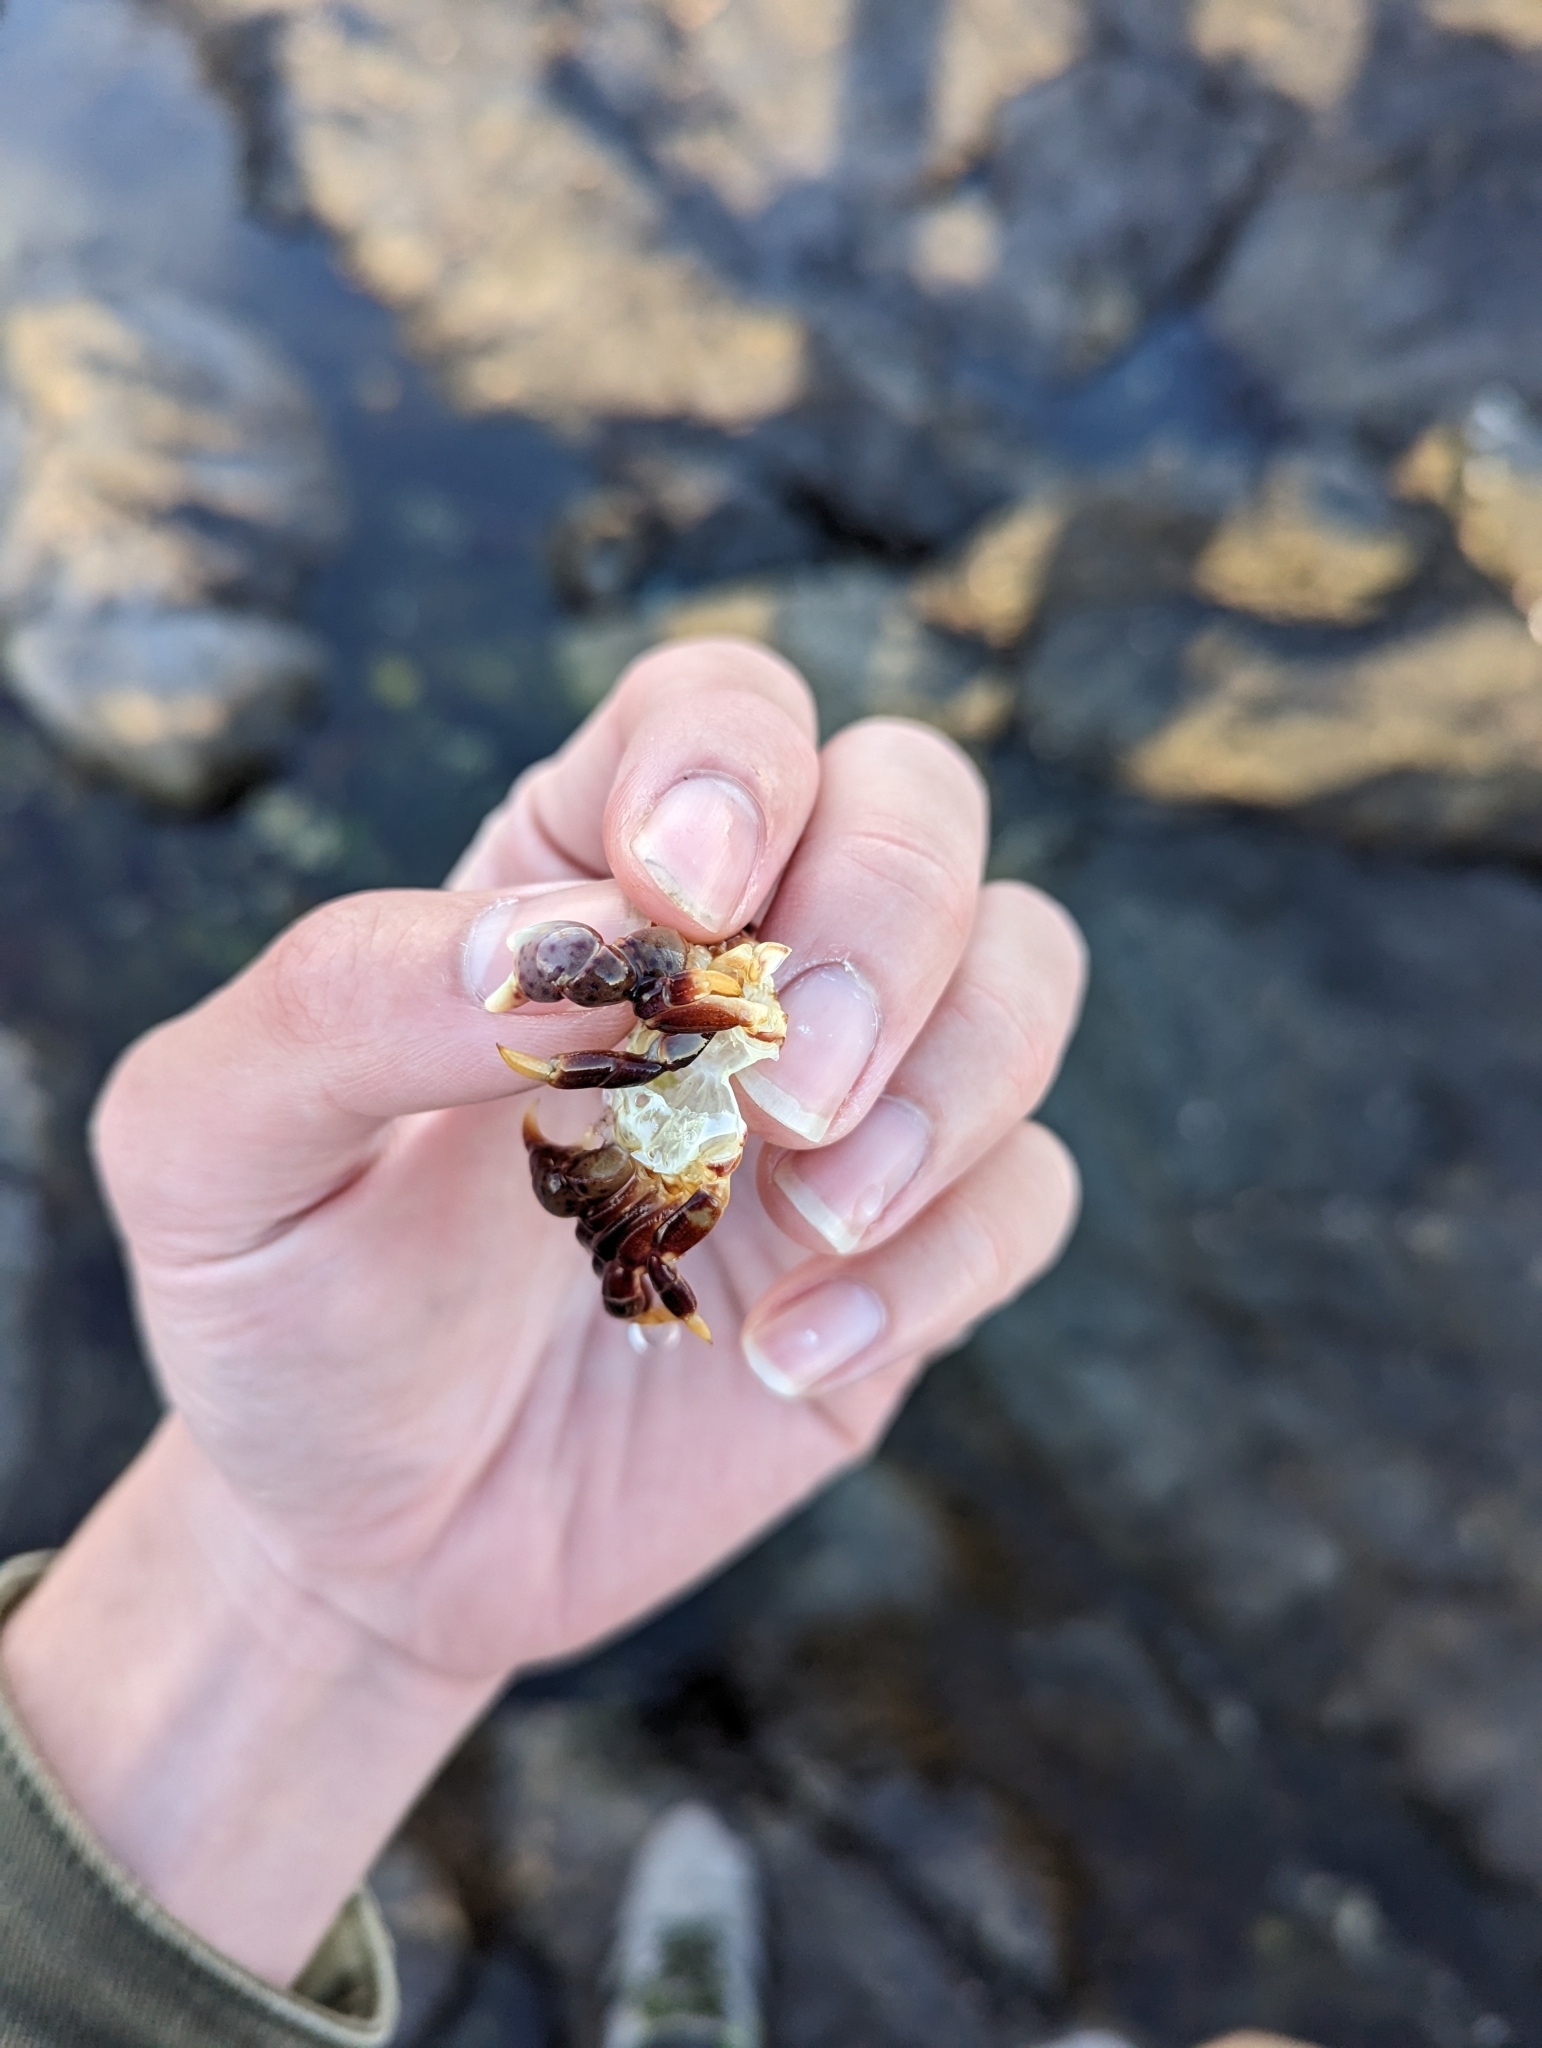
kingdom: Animalia
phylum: Arthropoda
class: Malacostraca
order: Decapoda
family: Varunidae
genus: Hemigrapsus
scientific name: Hemigrapsus nudus
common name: Purple shore crab
